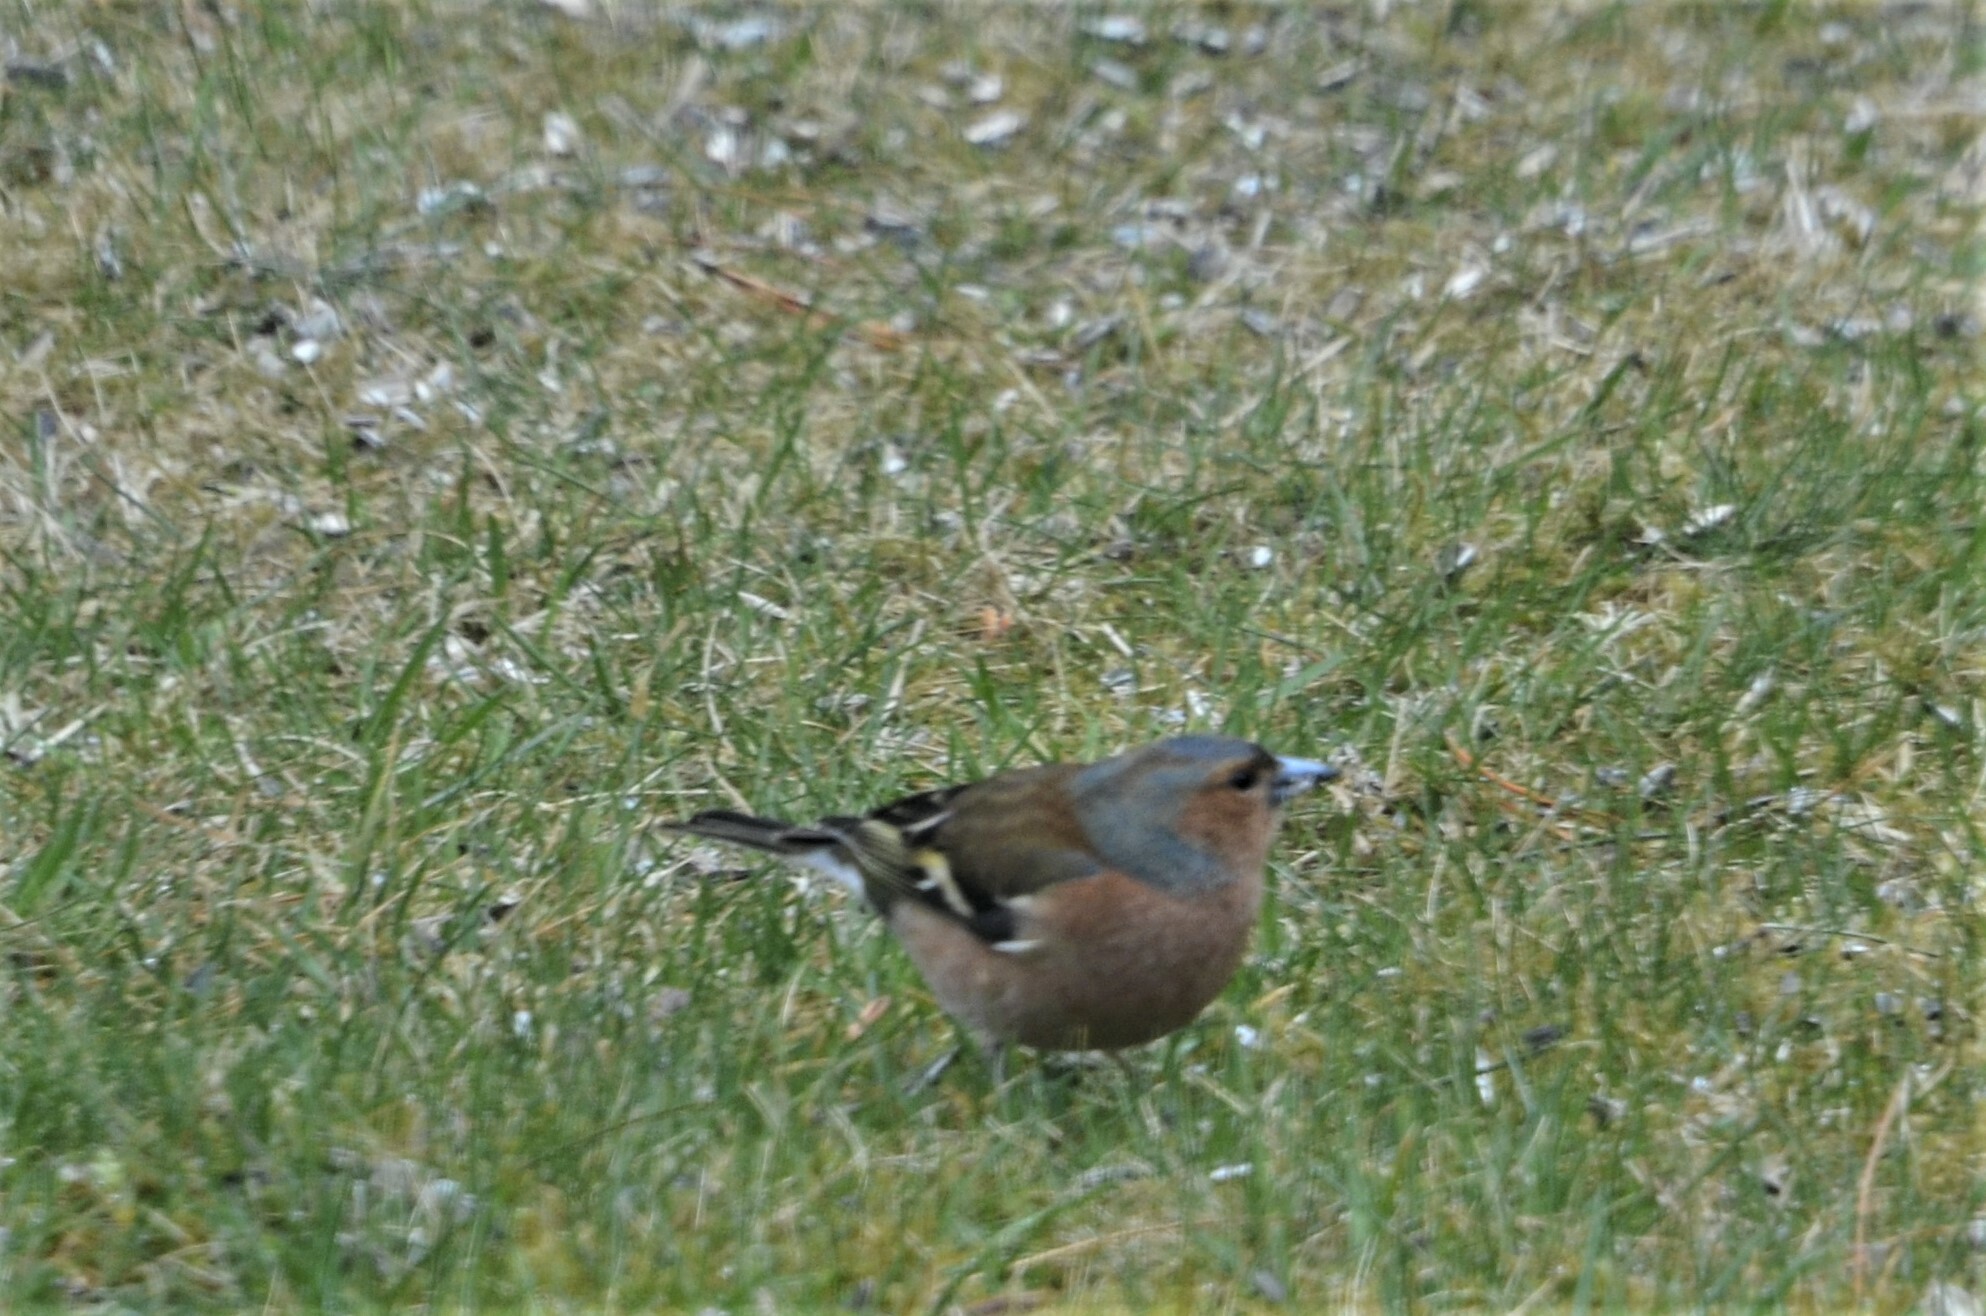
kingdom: Animalia
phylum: Chordata
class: Aves
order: Passeriformes
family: Fringillidae
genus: Fringilla
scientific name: Fringilla coelebs
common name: Common chaffinch
